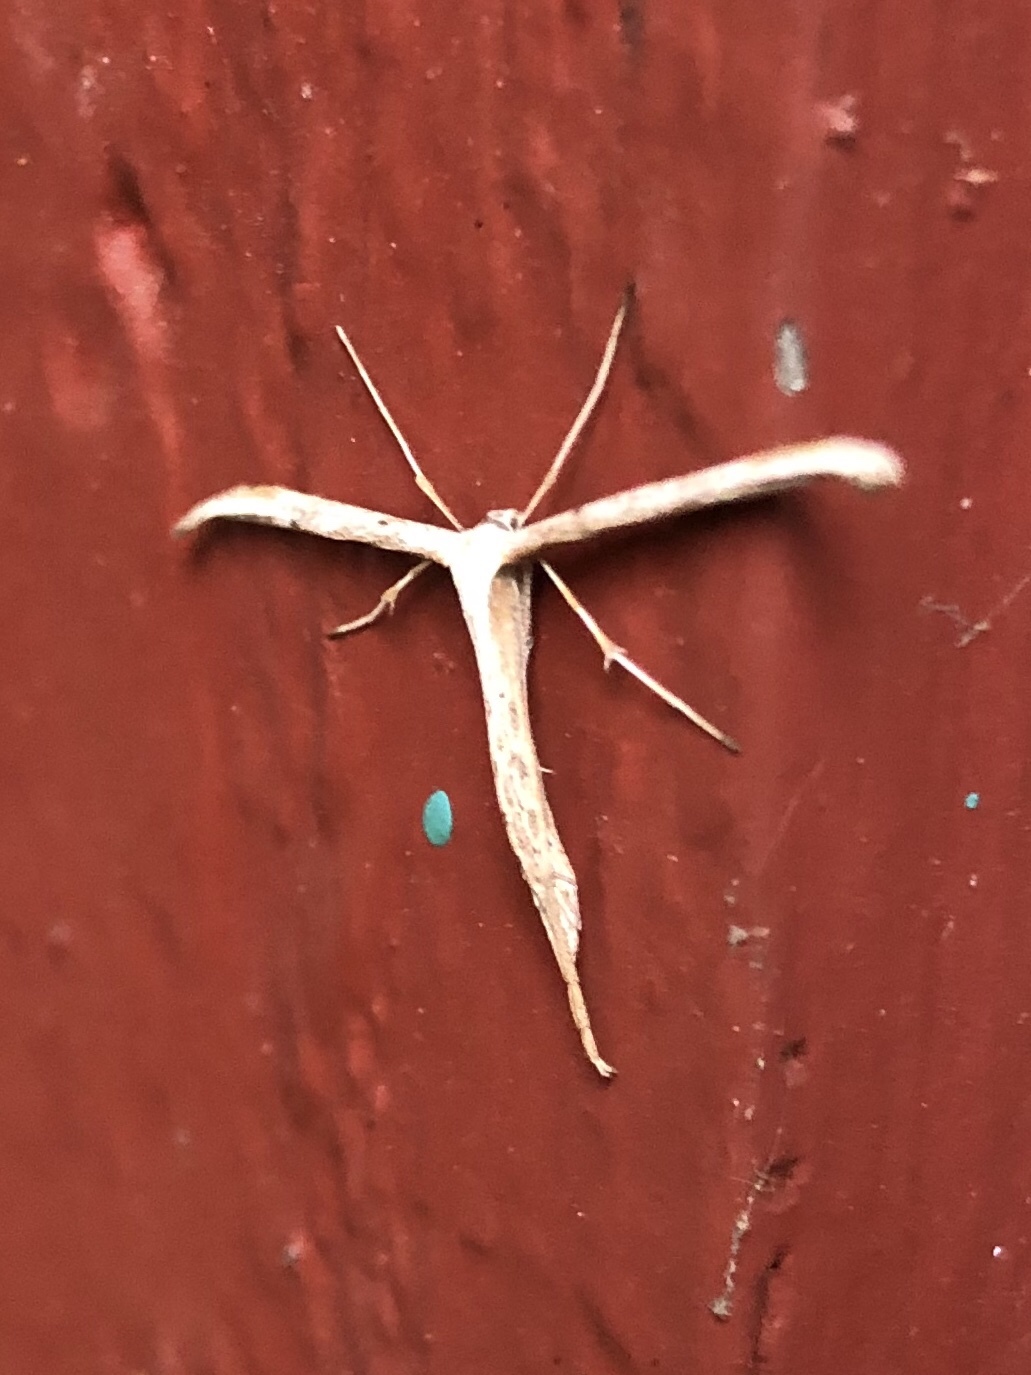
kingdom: Animalia
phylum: Arthropoda
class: Insecta
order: Lepidoptera
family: Pterophoridae
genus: Emmelina
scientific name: Emmelina monodactyla
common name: Common plume
